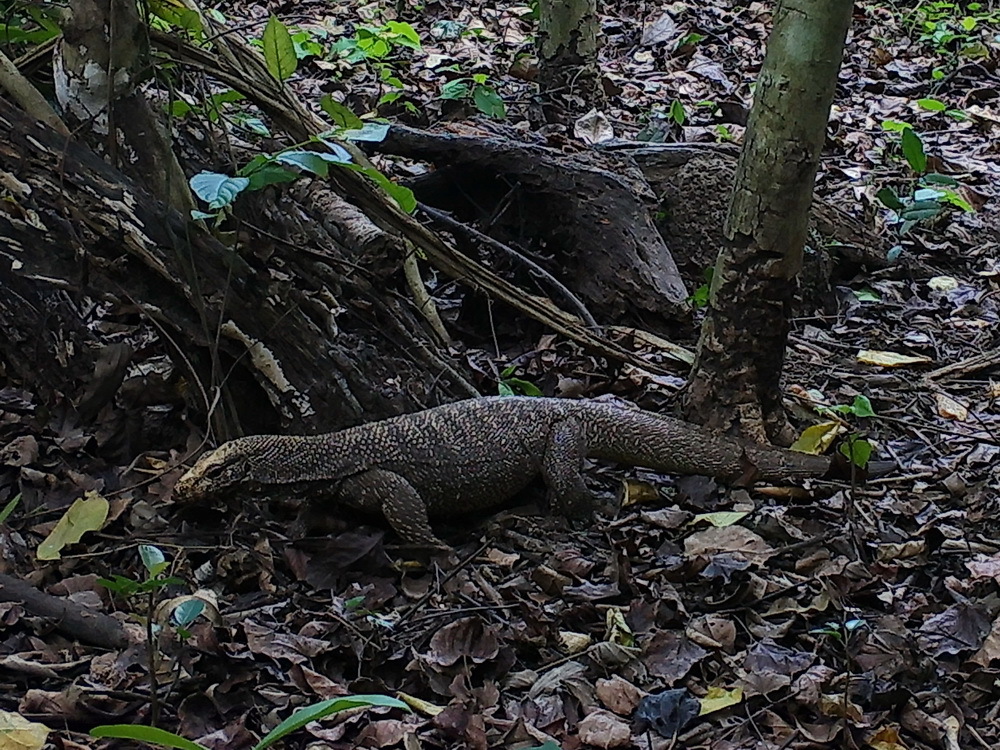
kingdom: Animalia
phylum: Chordata
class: Squamata
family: Varanidae
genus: Varanus
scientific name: Varanus nebulosus
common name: Clouded monitor
